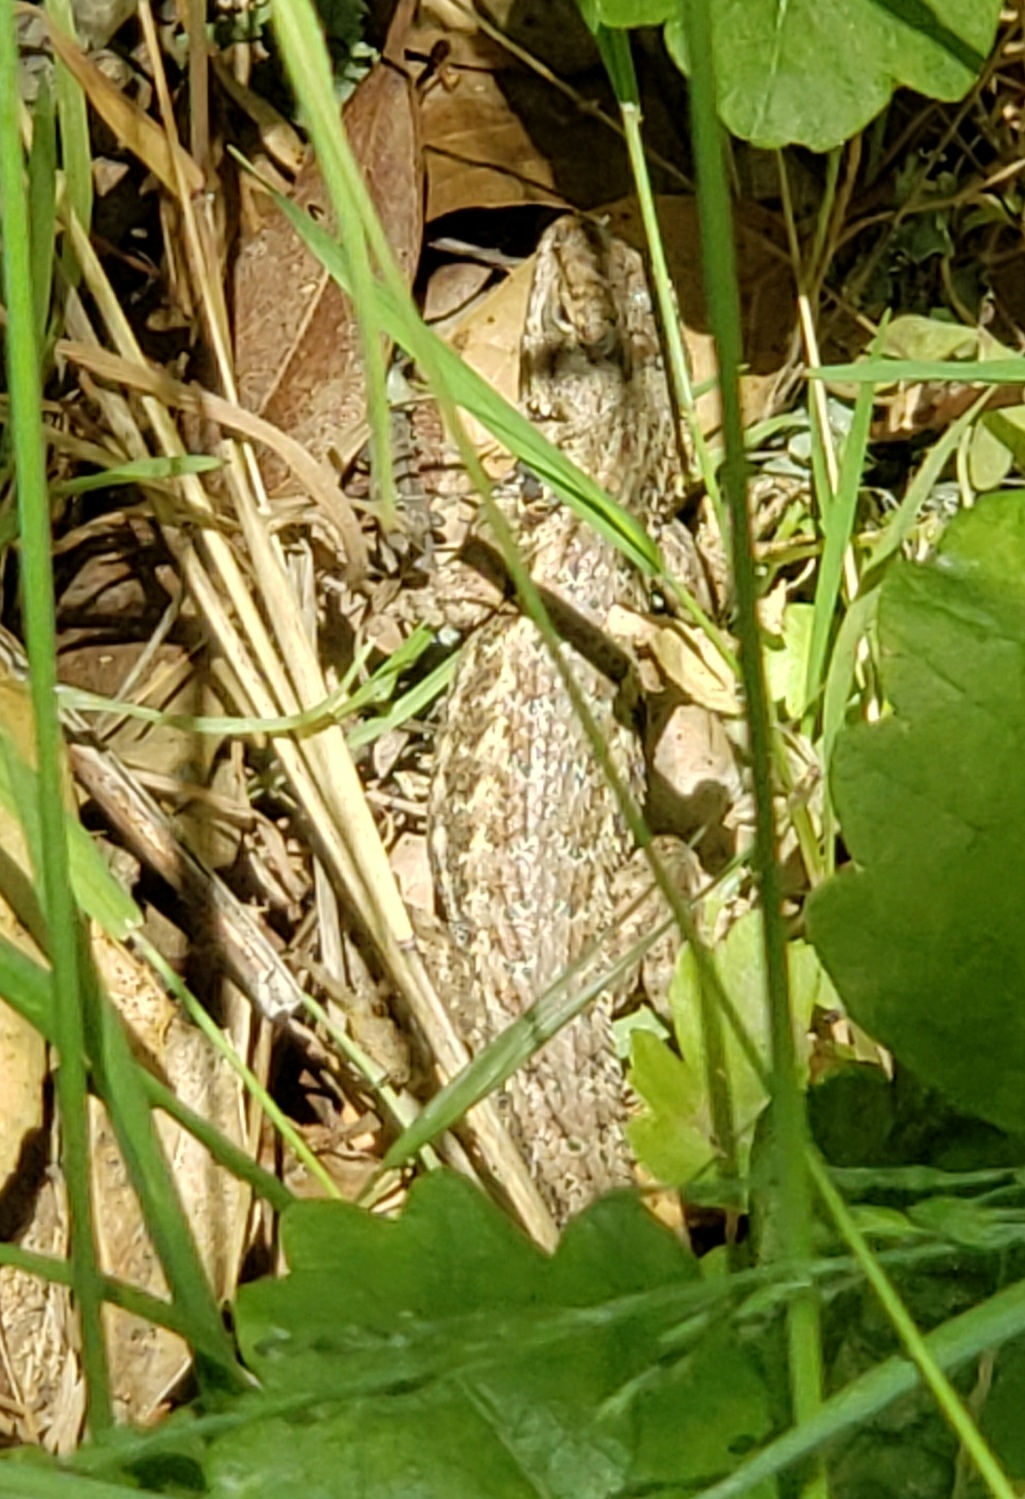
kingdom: Animalia
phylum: Chordata
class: Squamata
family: Phrynosomatidae
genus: Sceloporus
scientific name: Sceloporus occidentalis
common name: Western fence lizard
